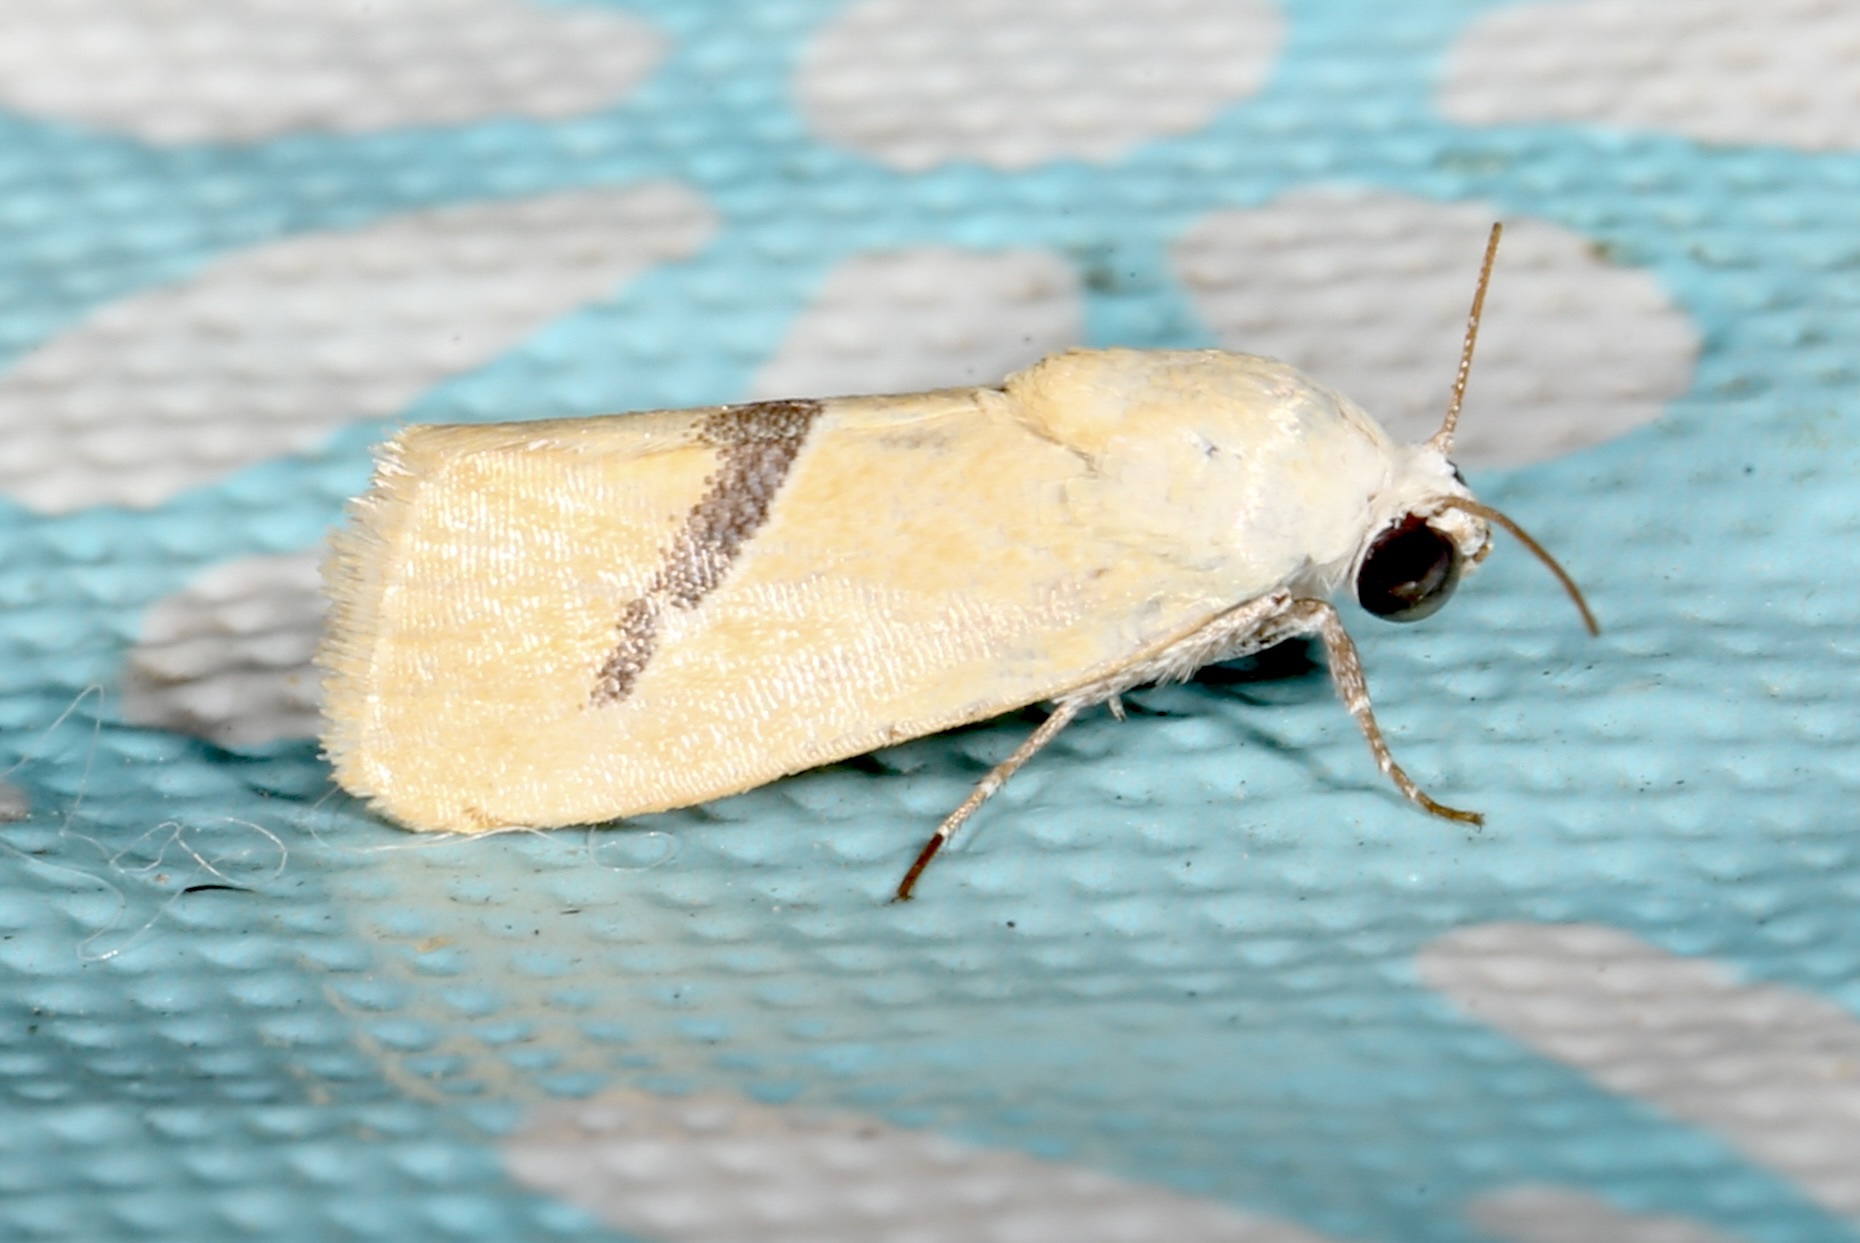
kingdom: Animalia
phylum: Arthropoda
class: Insecta
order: Lepidoptera
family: Noctuidae
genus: Ponometia
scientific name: Ponometia venustula
